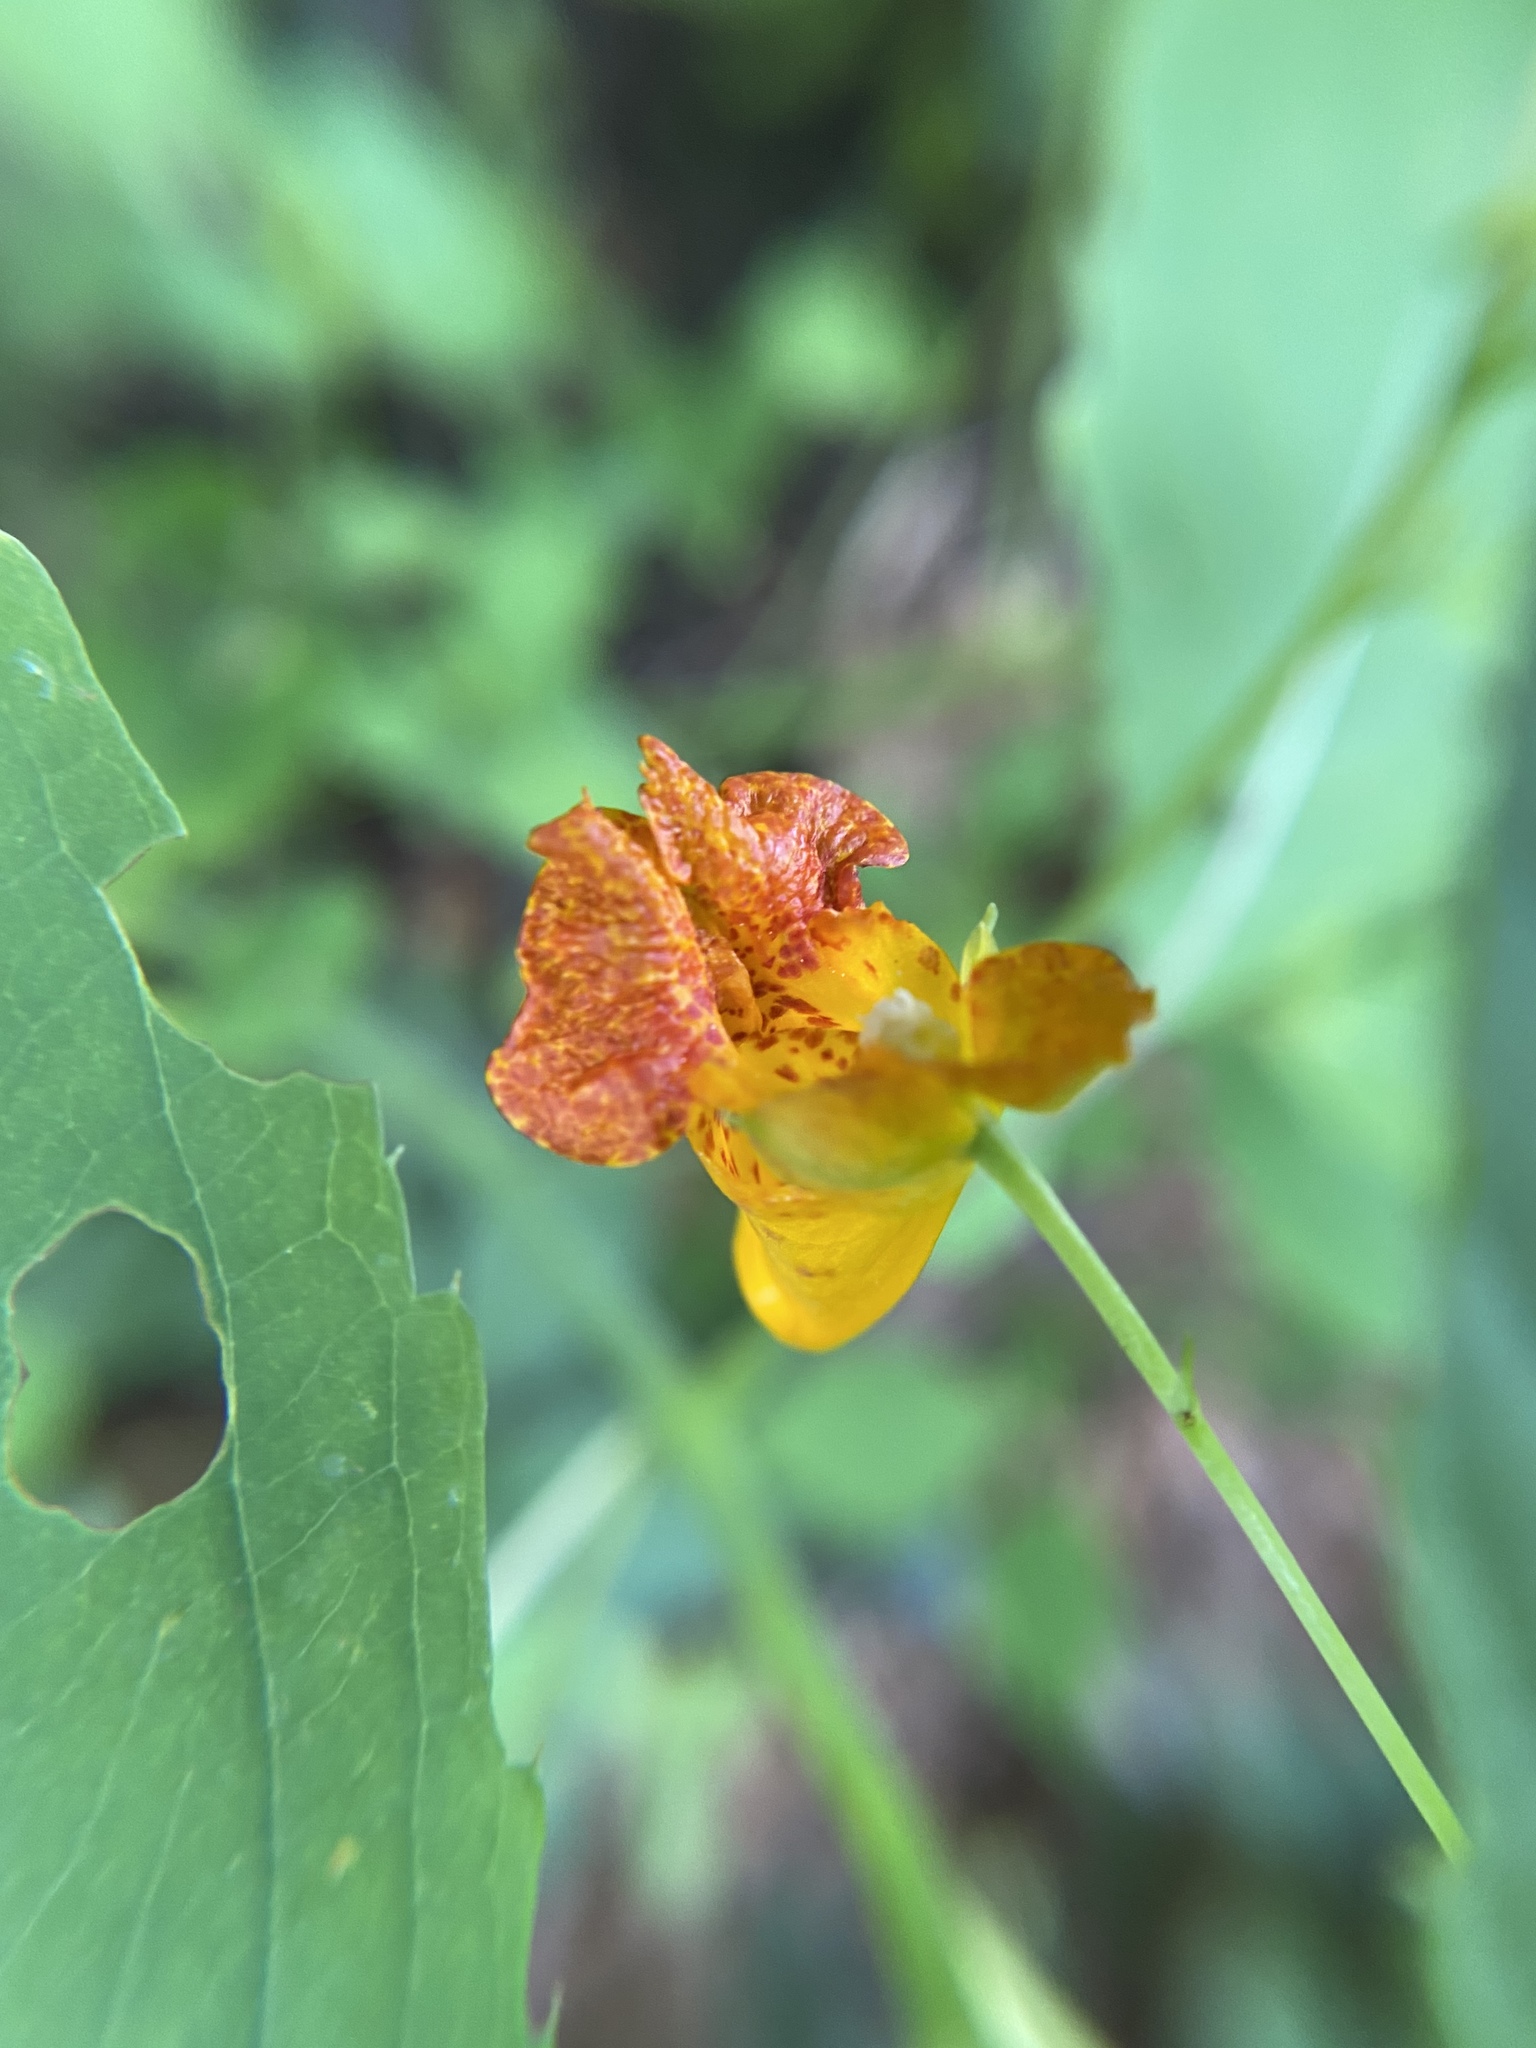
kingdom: Plantae
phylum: Tracheophyta
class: Magnoliopsida
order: Ericales
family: Balsaminaceae
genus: Impatiens
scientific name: Impatiens capensis
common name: Orange balsam
